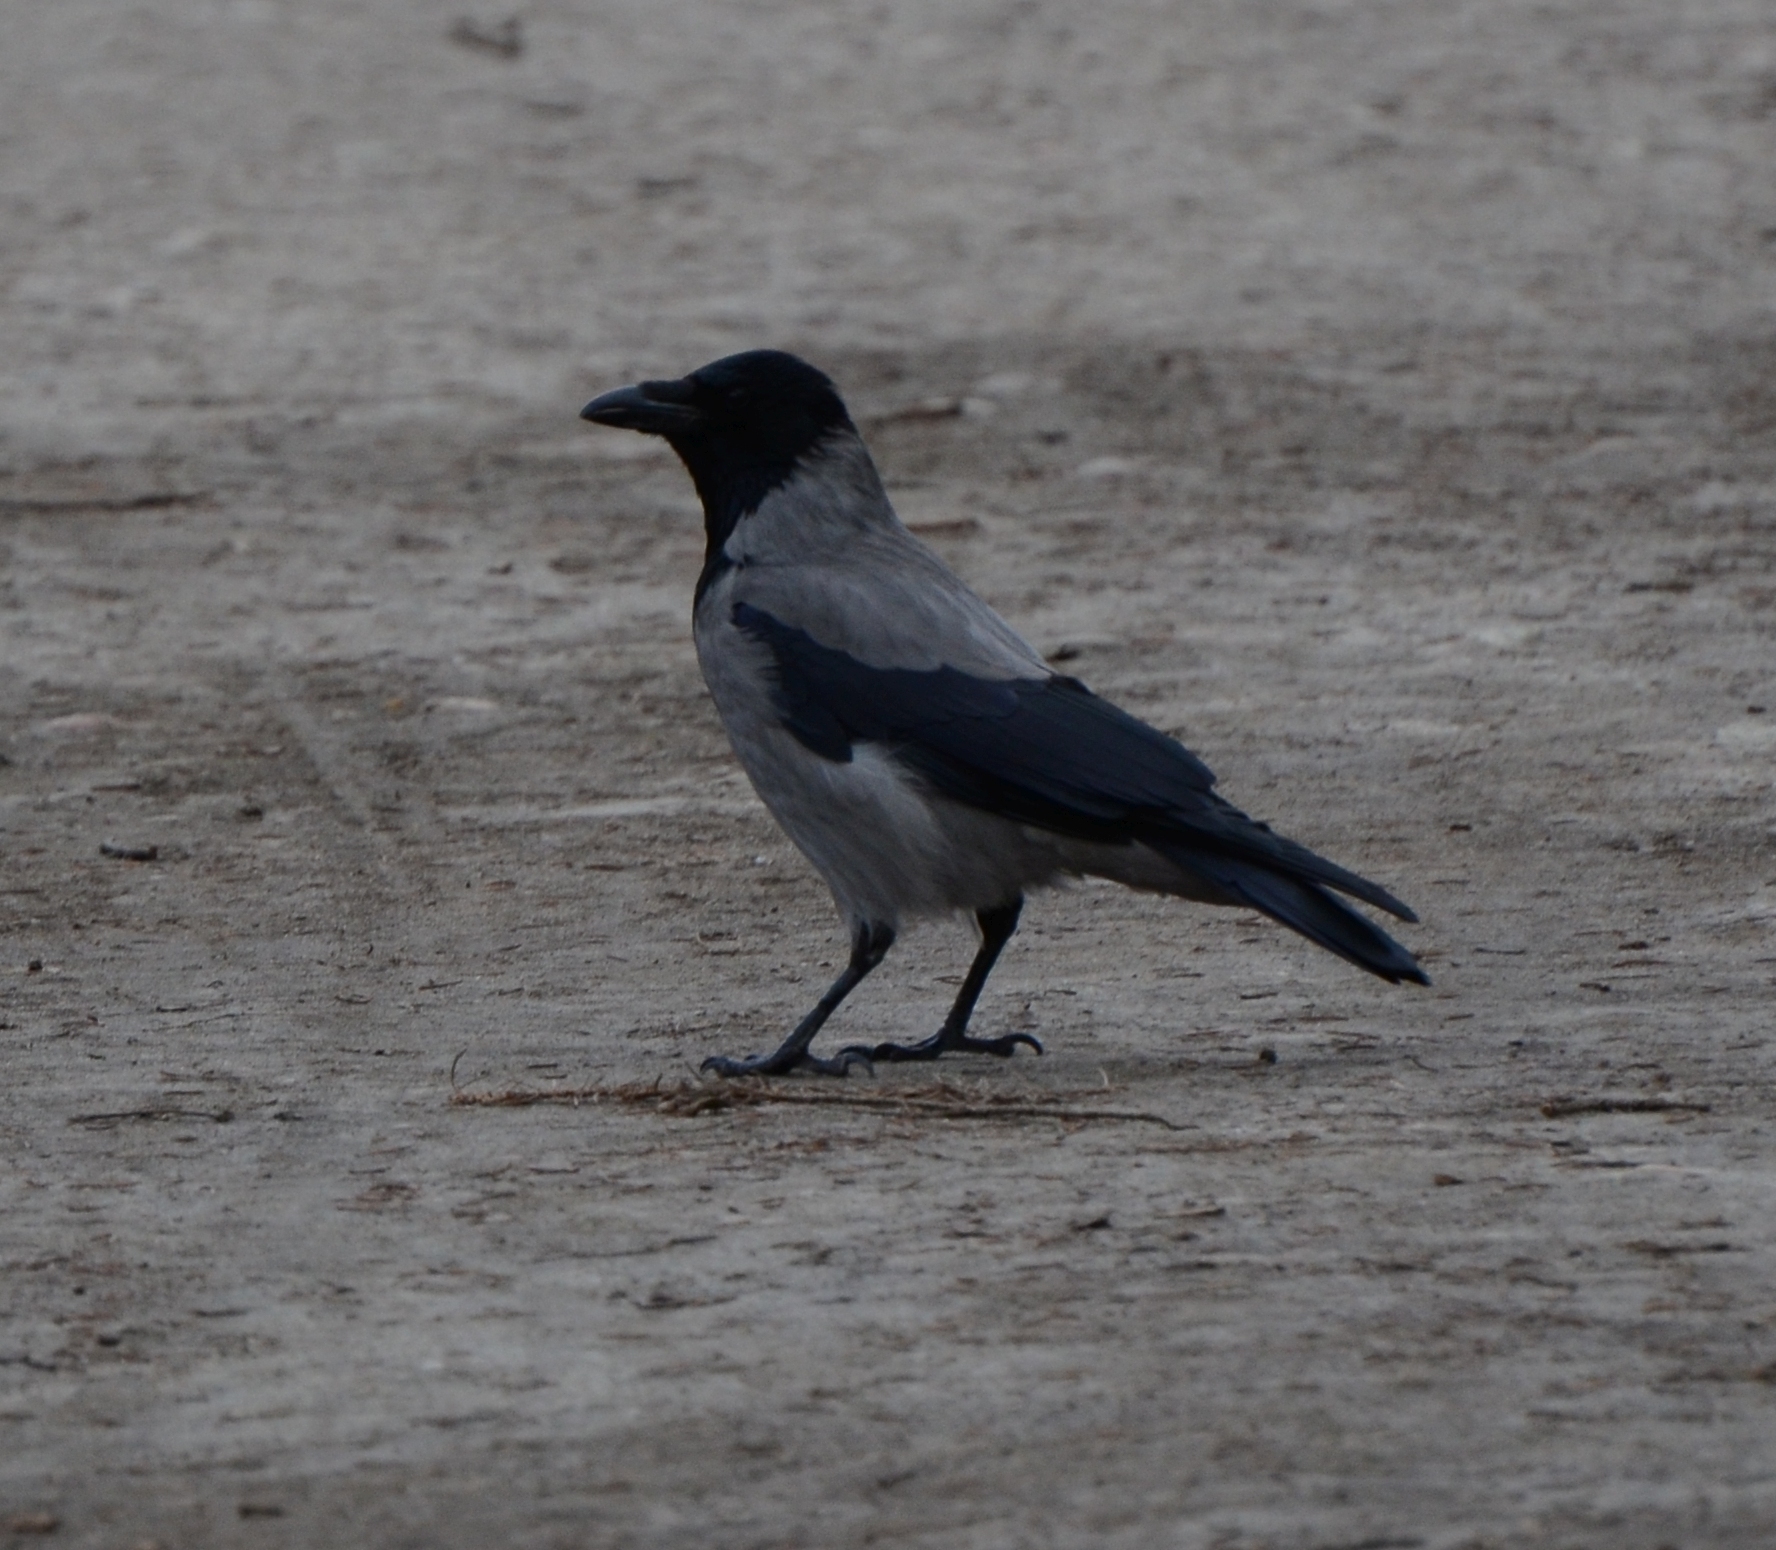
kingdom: Animalia
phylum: Chordata
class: Aves
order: Passeriformes
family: Corvidae
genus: Corvus
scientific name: Corvus cornix
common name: Hooded crow
